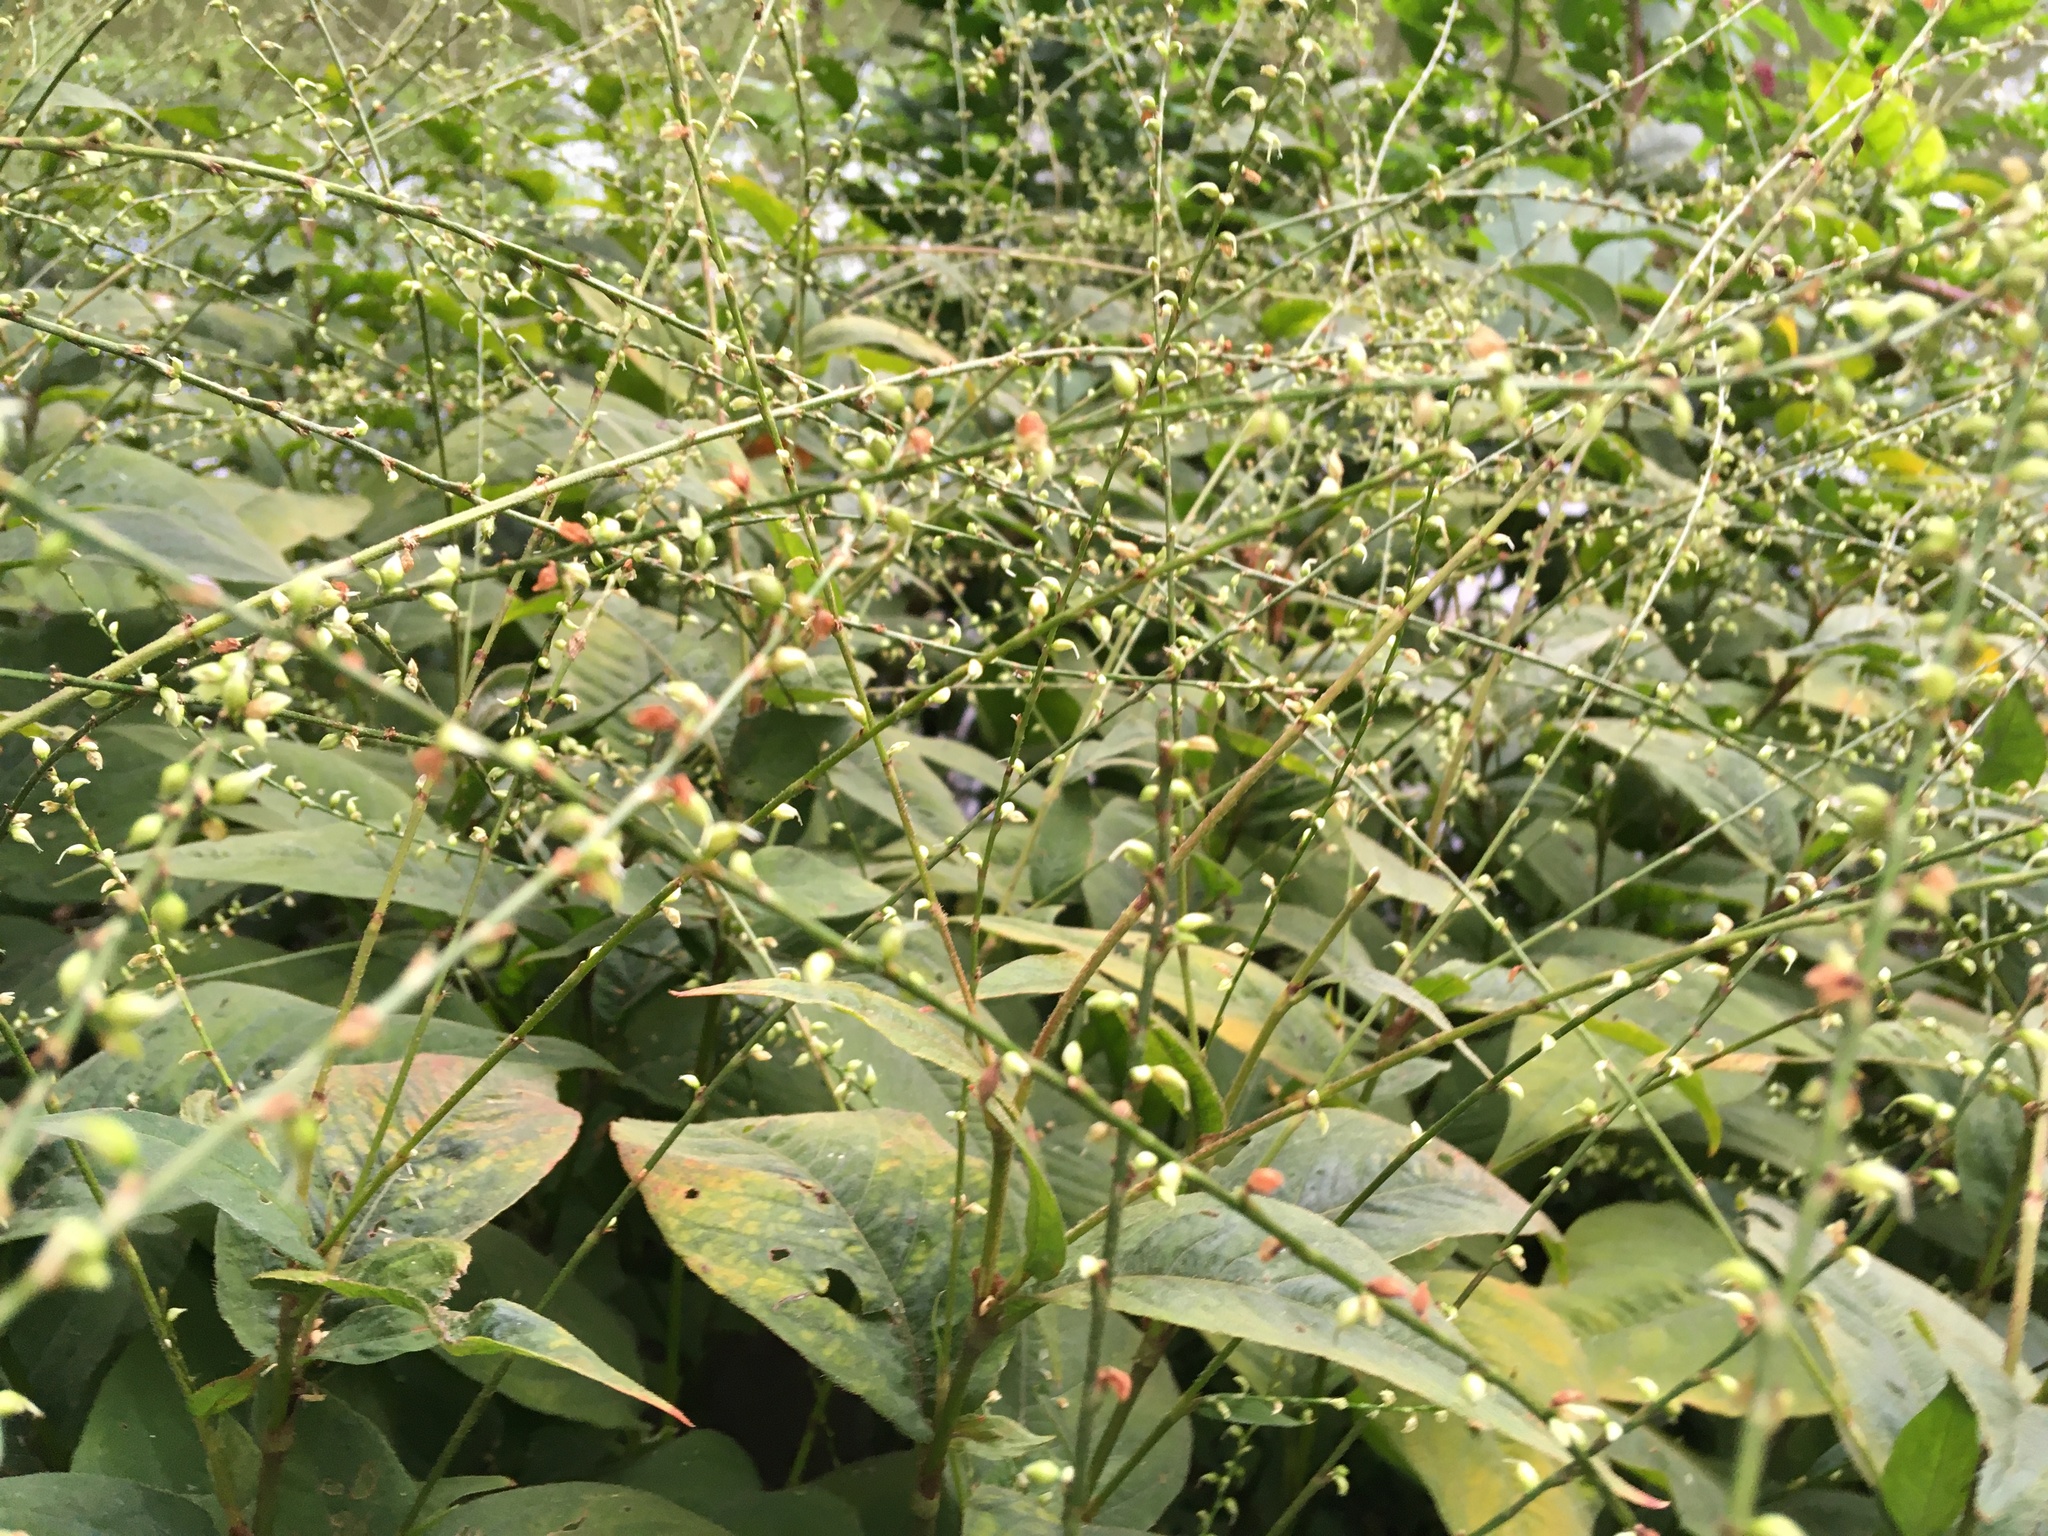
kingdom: Plantae
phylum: Tracheophyta
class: Magnoliopsida
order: Caryophyllales
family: Polygonaceae
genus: Persicaria
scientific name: Persicaria virginiana
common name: Jumpseed
